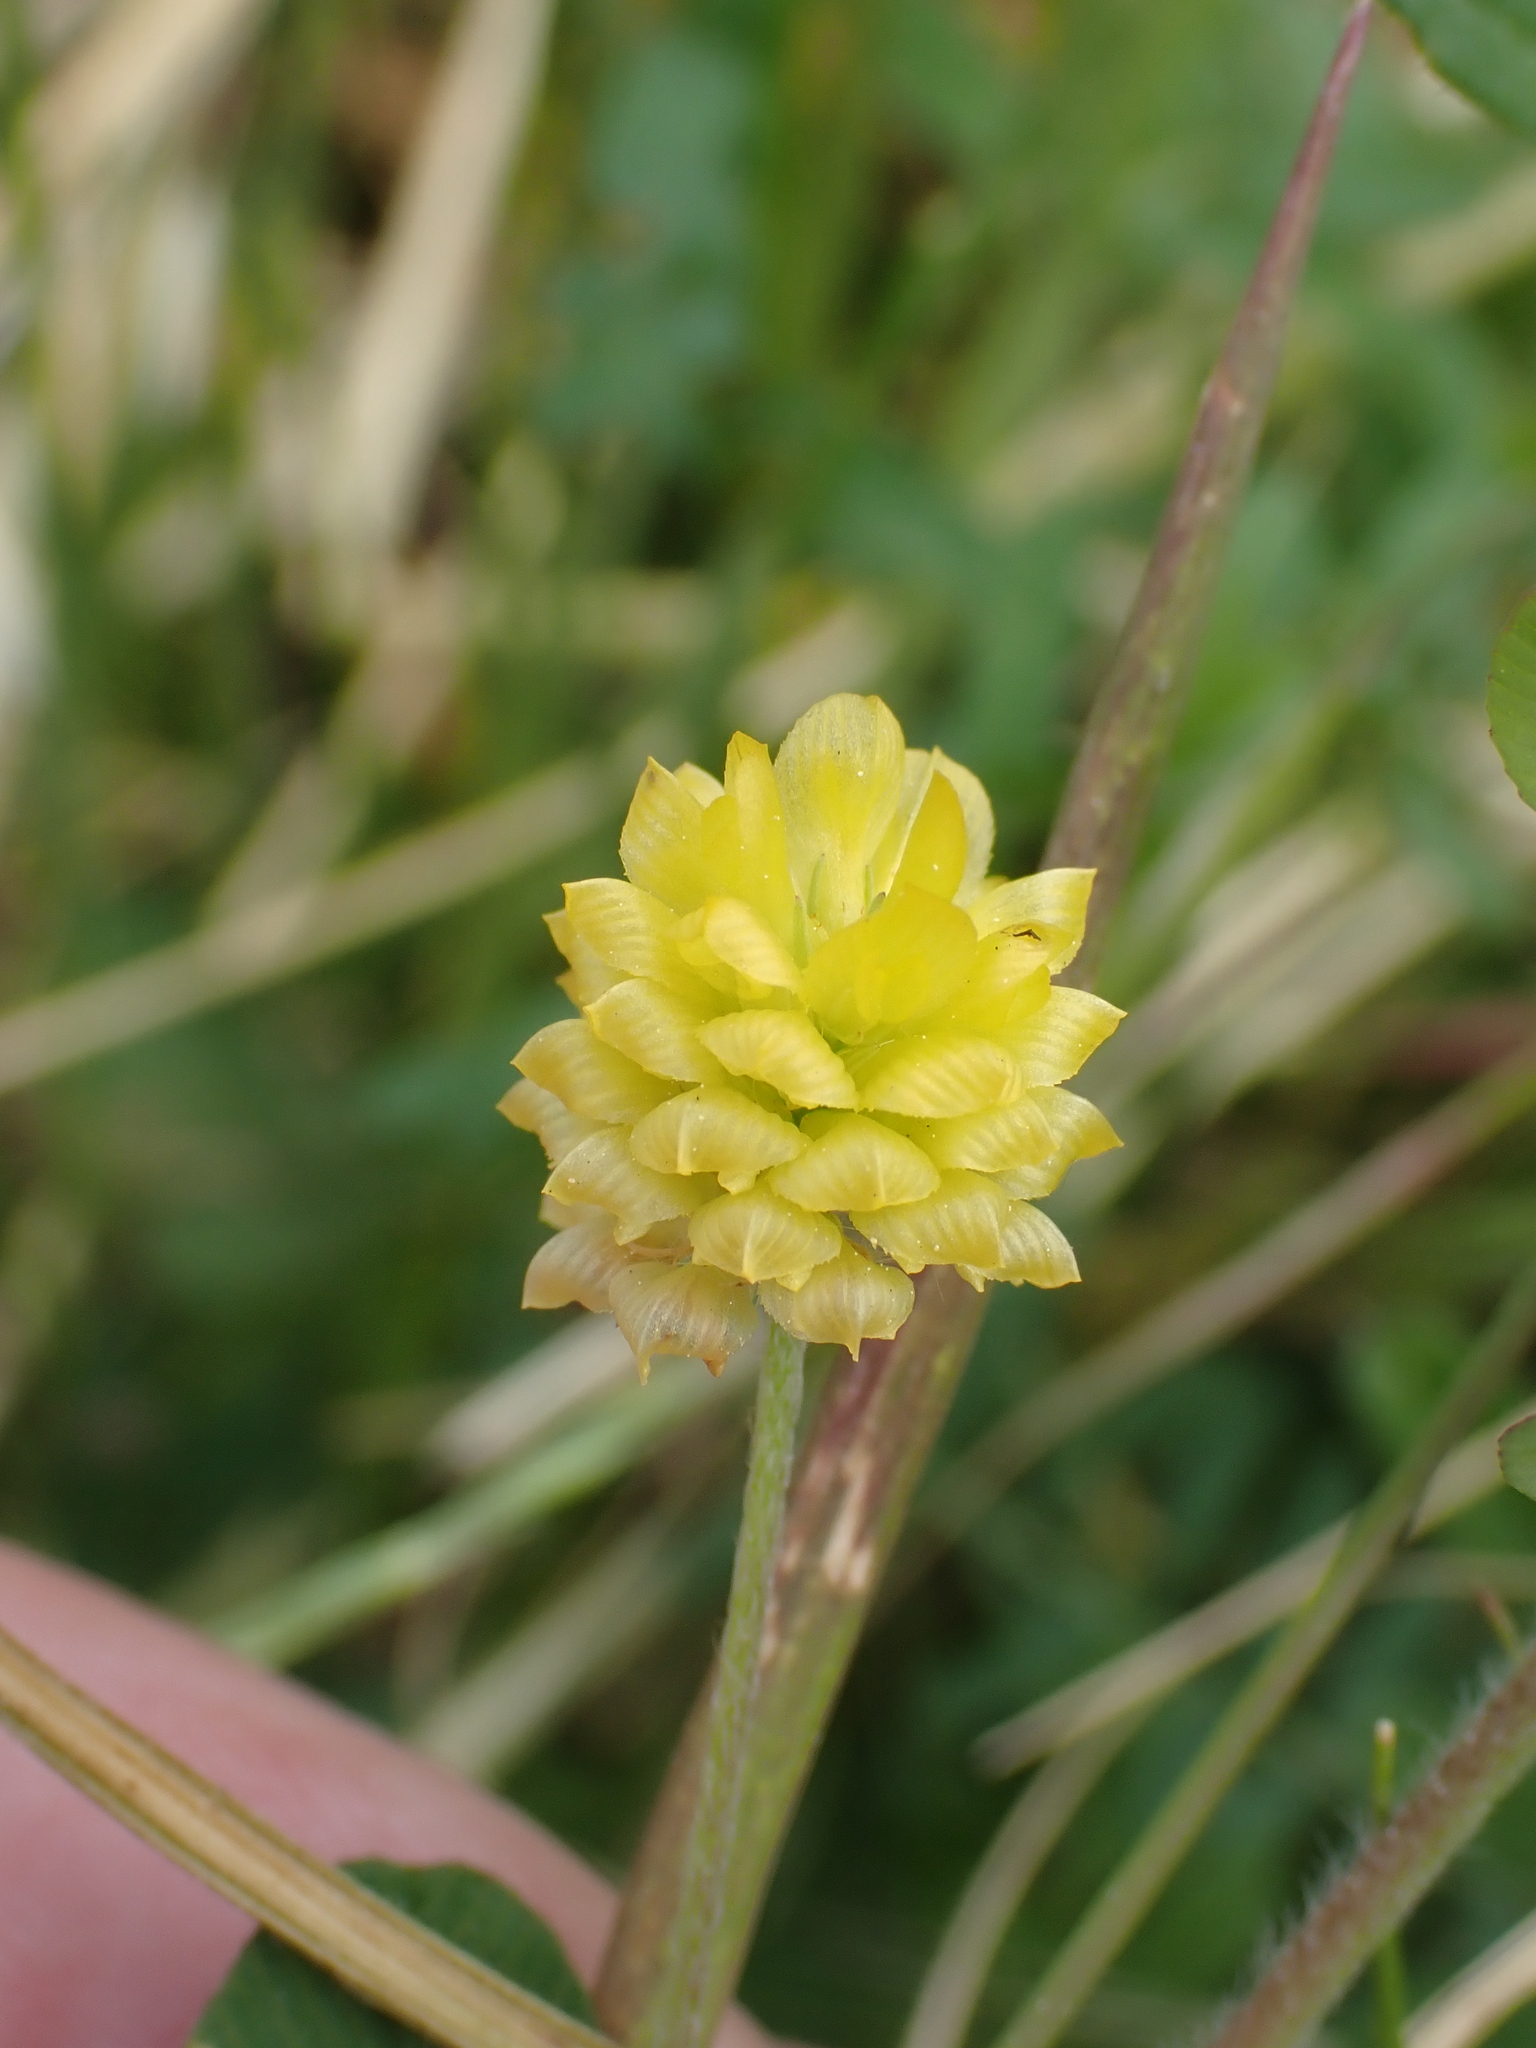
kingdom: Plantae
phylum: Tracheophyta
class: Magnoliopsida
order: Fabales
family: Fabaceae
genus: Trifolium
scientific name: Trifolium campestre
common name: Field clover
